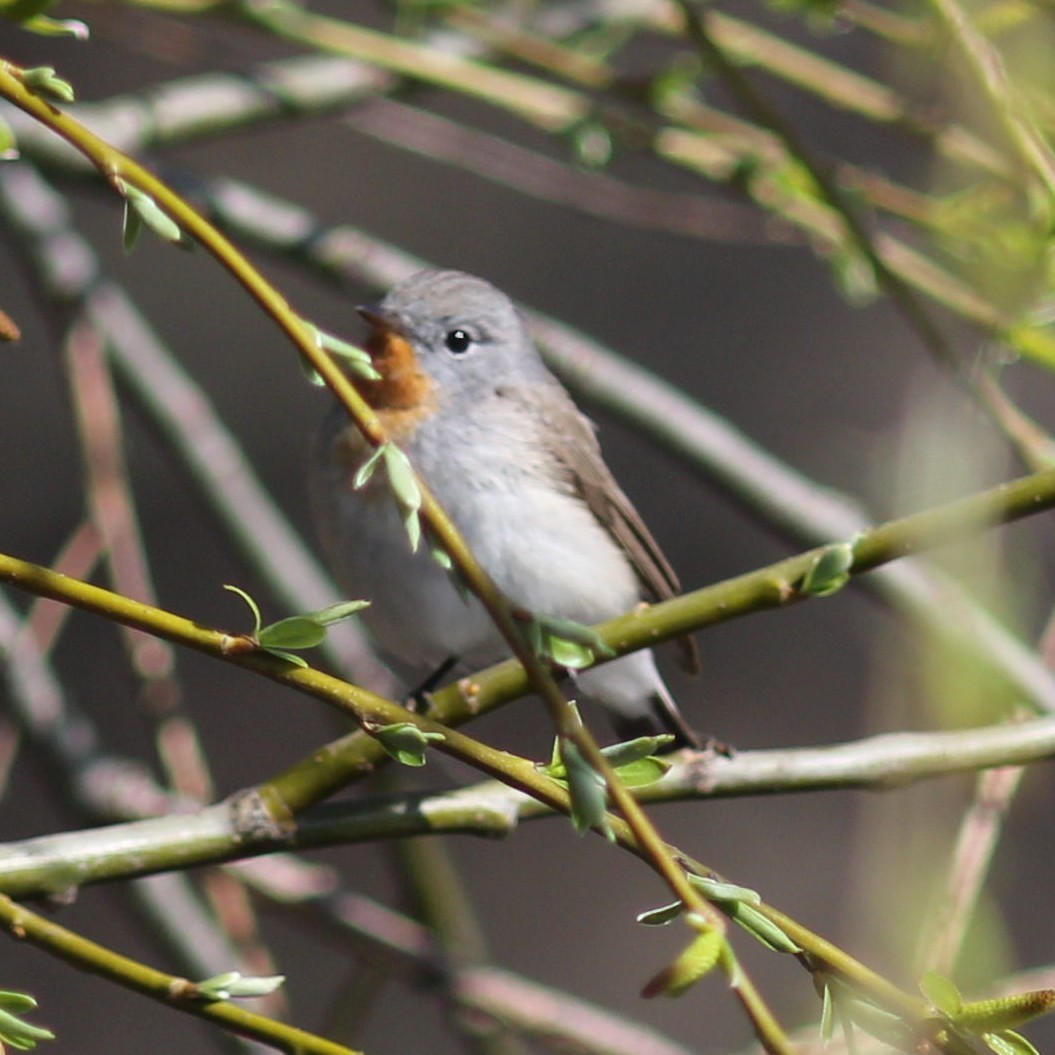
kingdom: Animalia
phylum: Chordata
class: Aves
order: Passeriformes
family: Muscicapidae
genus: Ficedula
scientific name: Ficedula parva
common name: Red-breasted flycatcher
